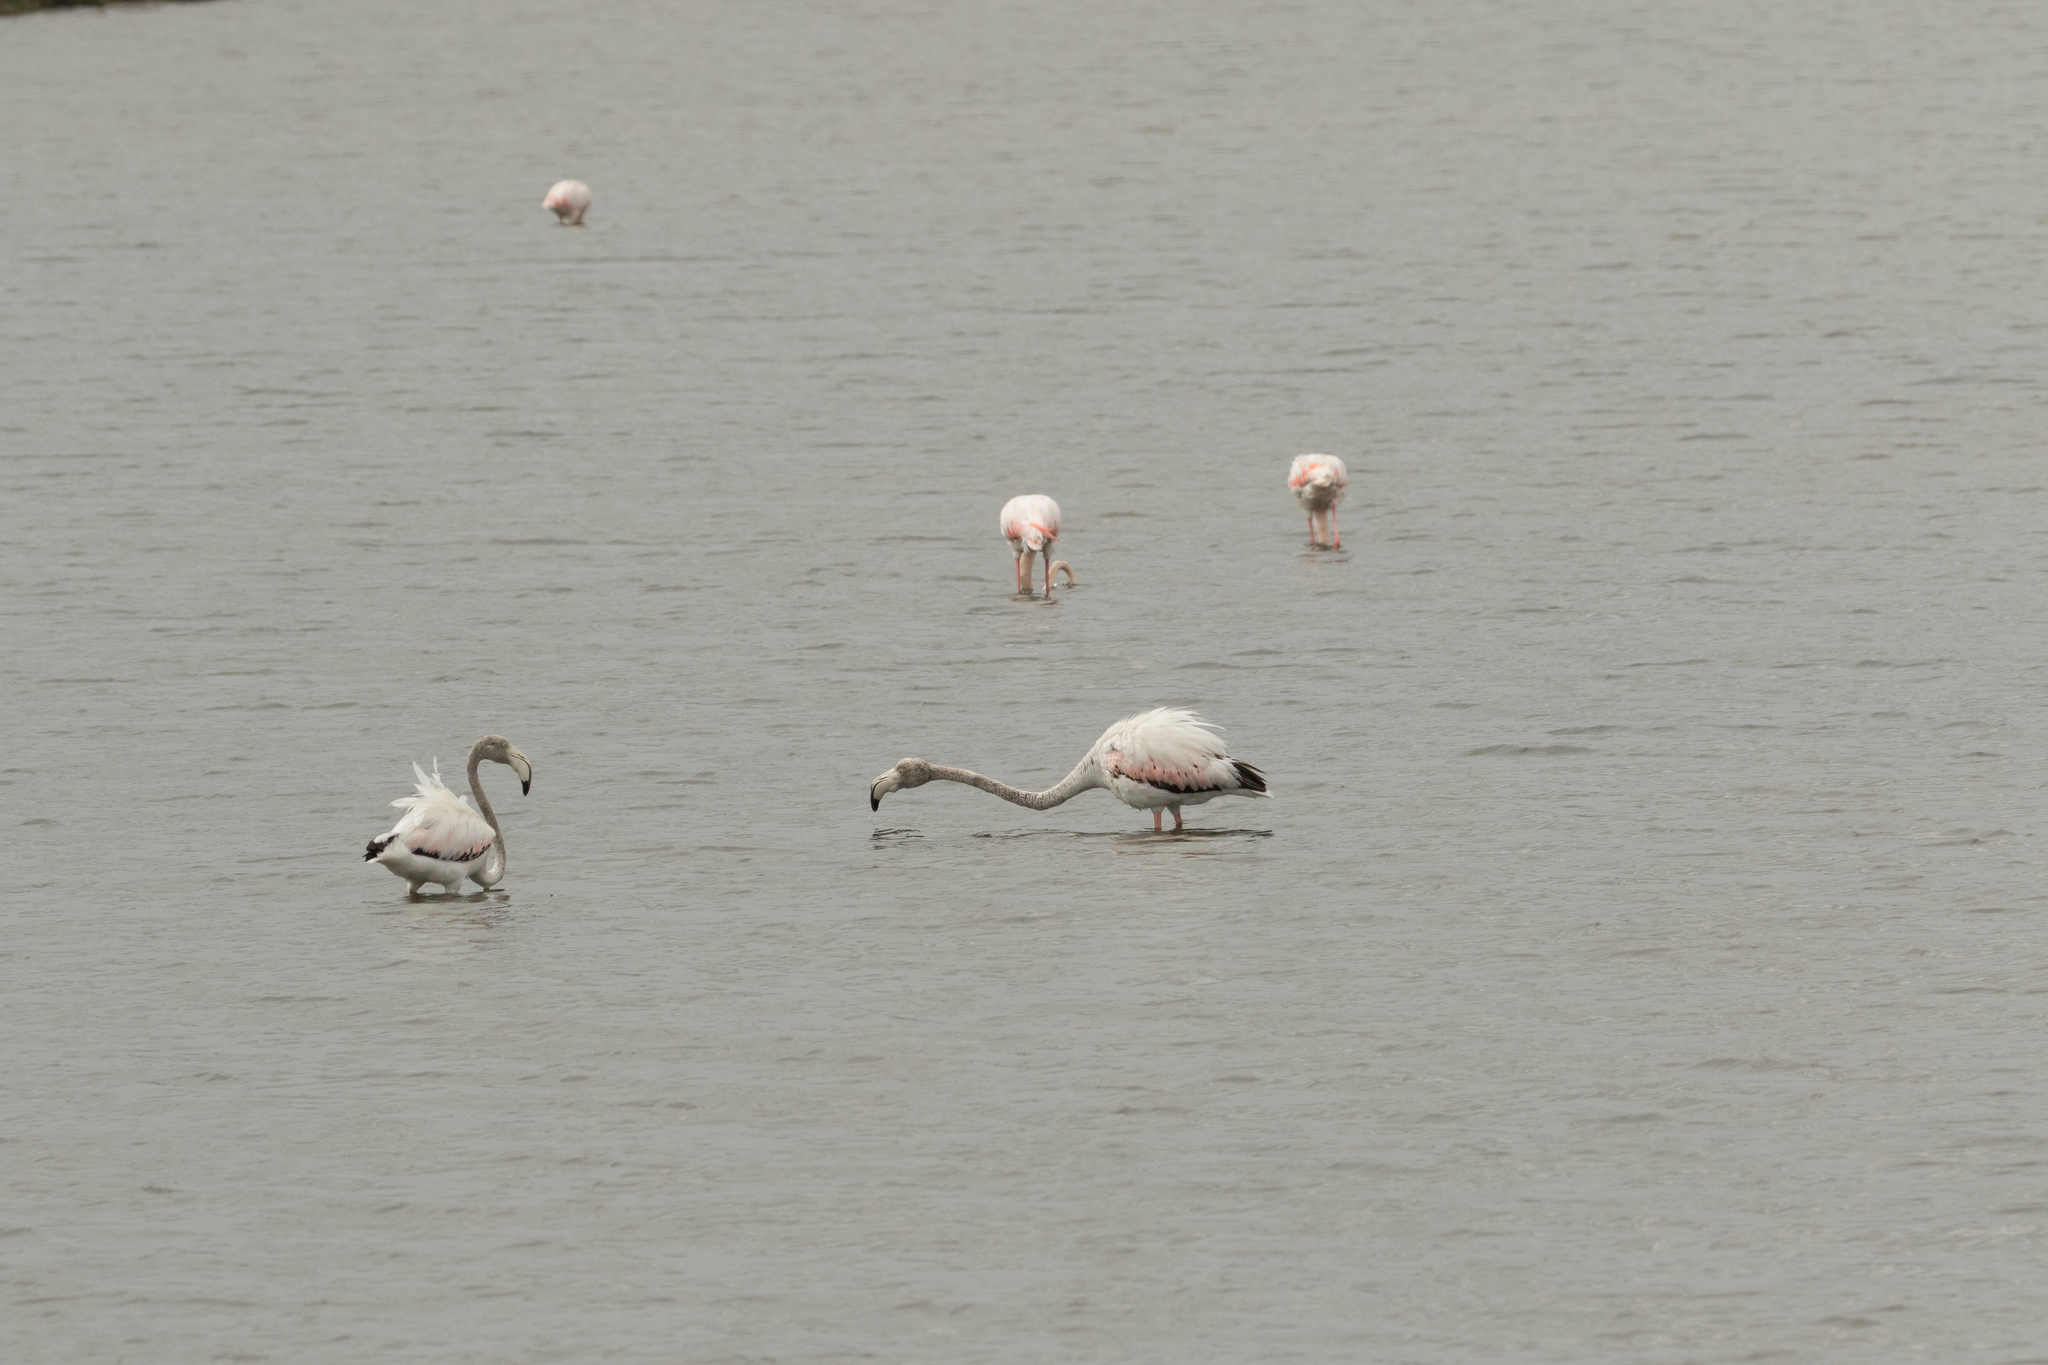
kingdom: Animalia
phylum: Chordata
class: Aves
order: Phoenicopteriformes
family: Phoenicopteridae
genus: Phoenicopterus
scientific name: Phoenicopterus roseus
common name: Greater flamingo
